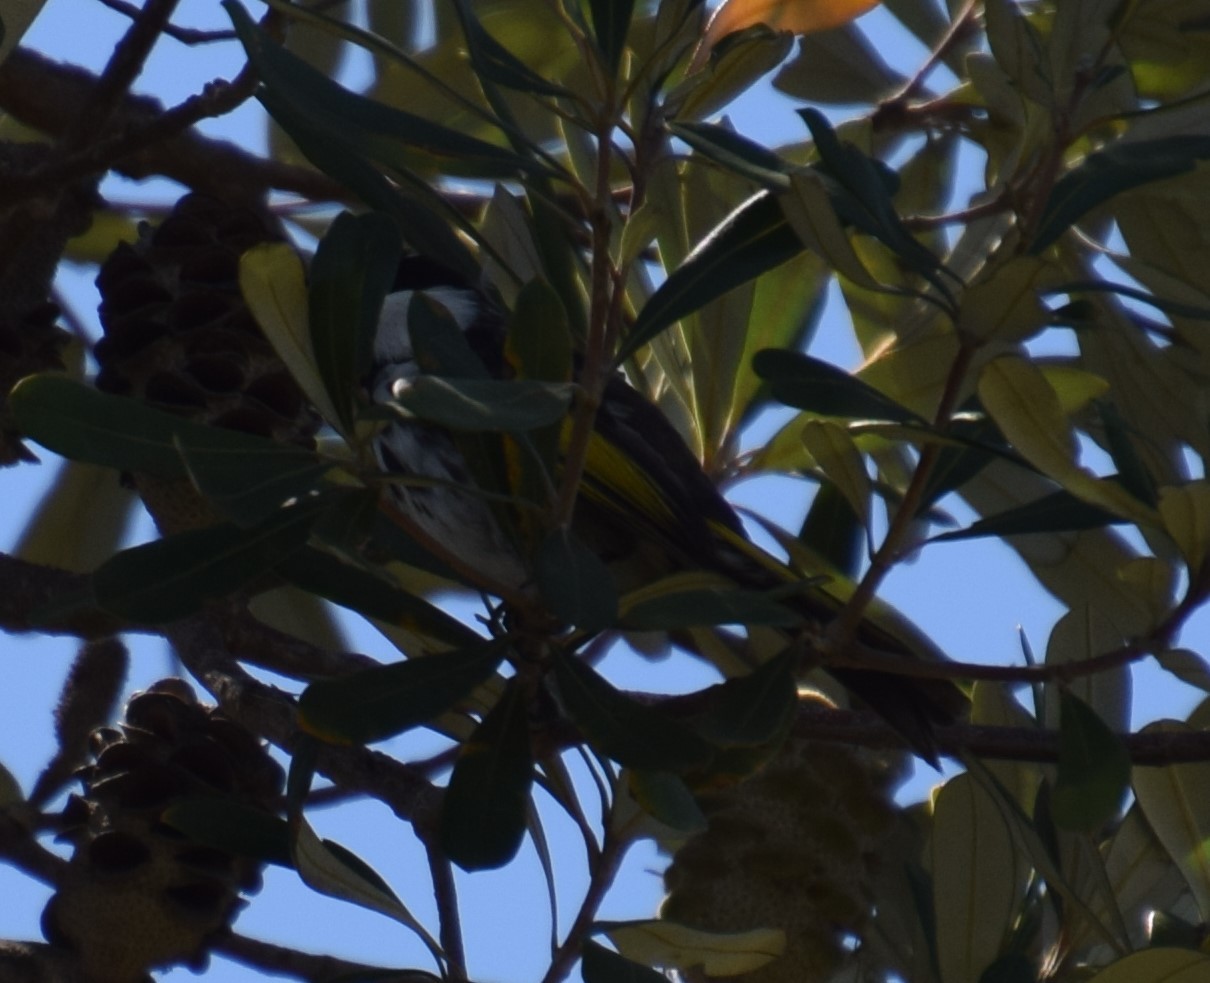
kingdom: Animalia
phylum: Chordata
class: Aves
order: Passeriformes
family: Meliphagidae
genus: Phylidonyris
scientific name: Phylidonyris niger
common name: White-cheeked honeyeater
